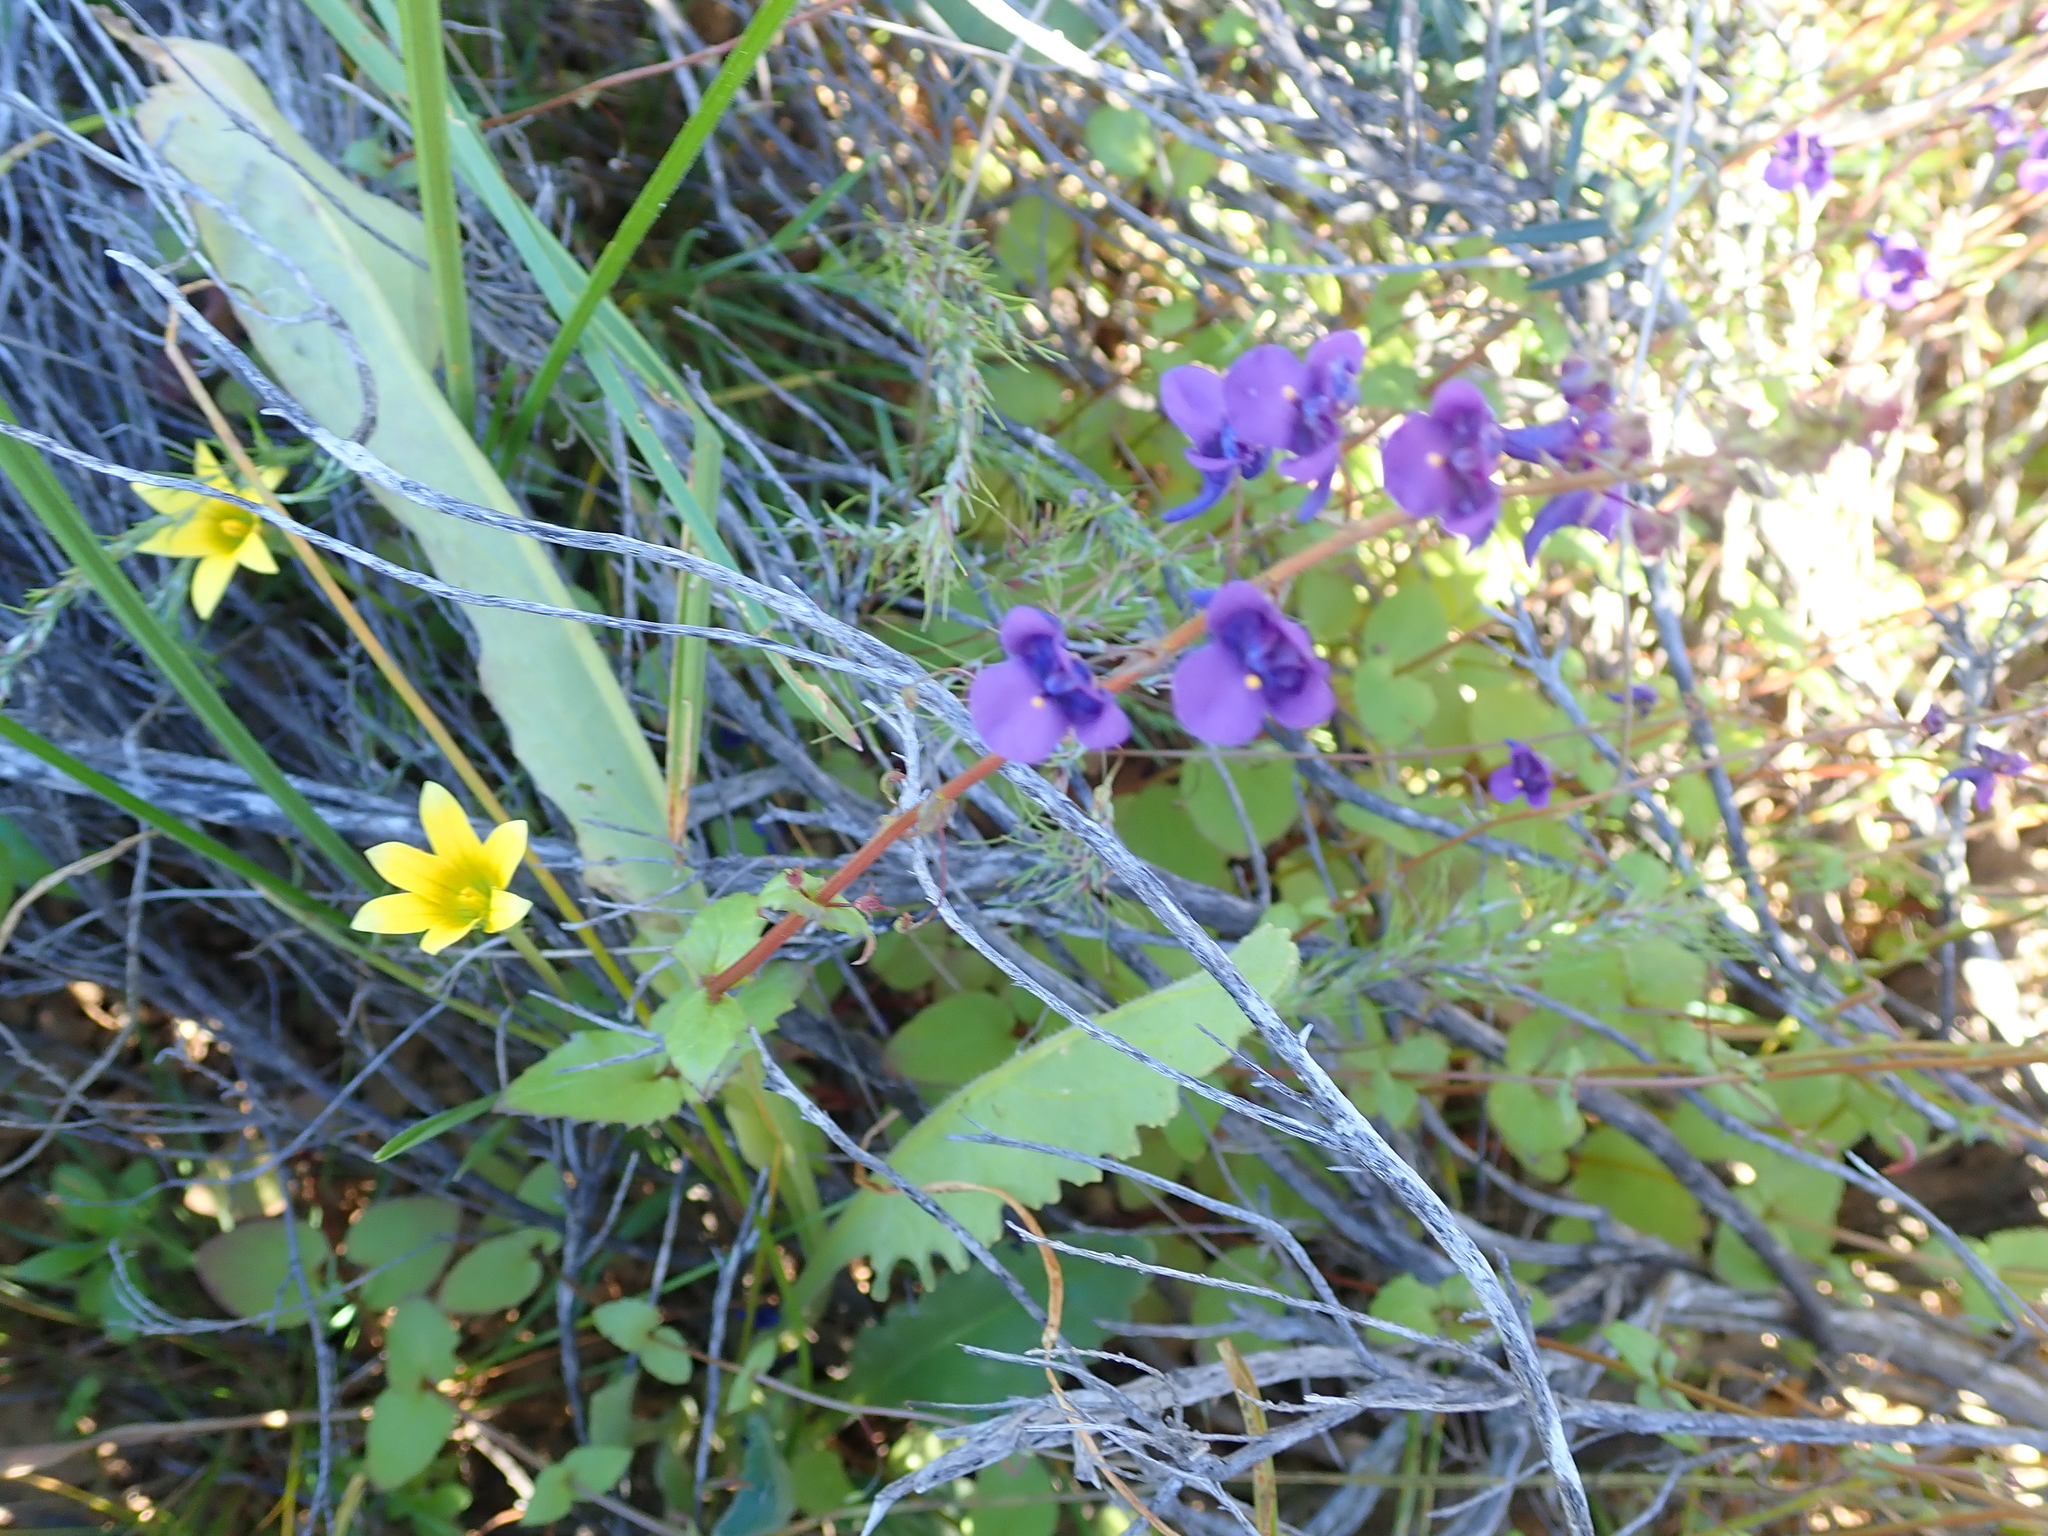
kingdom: Plantae
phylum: Tracheophyta
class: Magnoliopsida
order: Lamiales
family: Scrophulariaceae
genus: Diascia
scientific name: Diascia veronicoides
